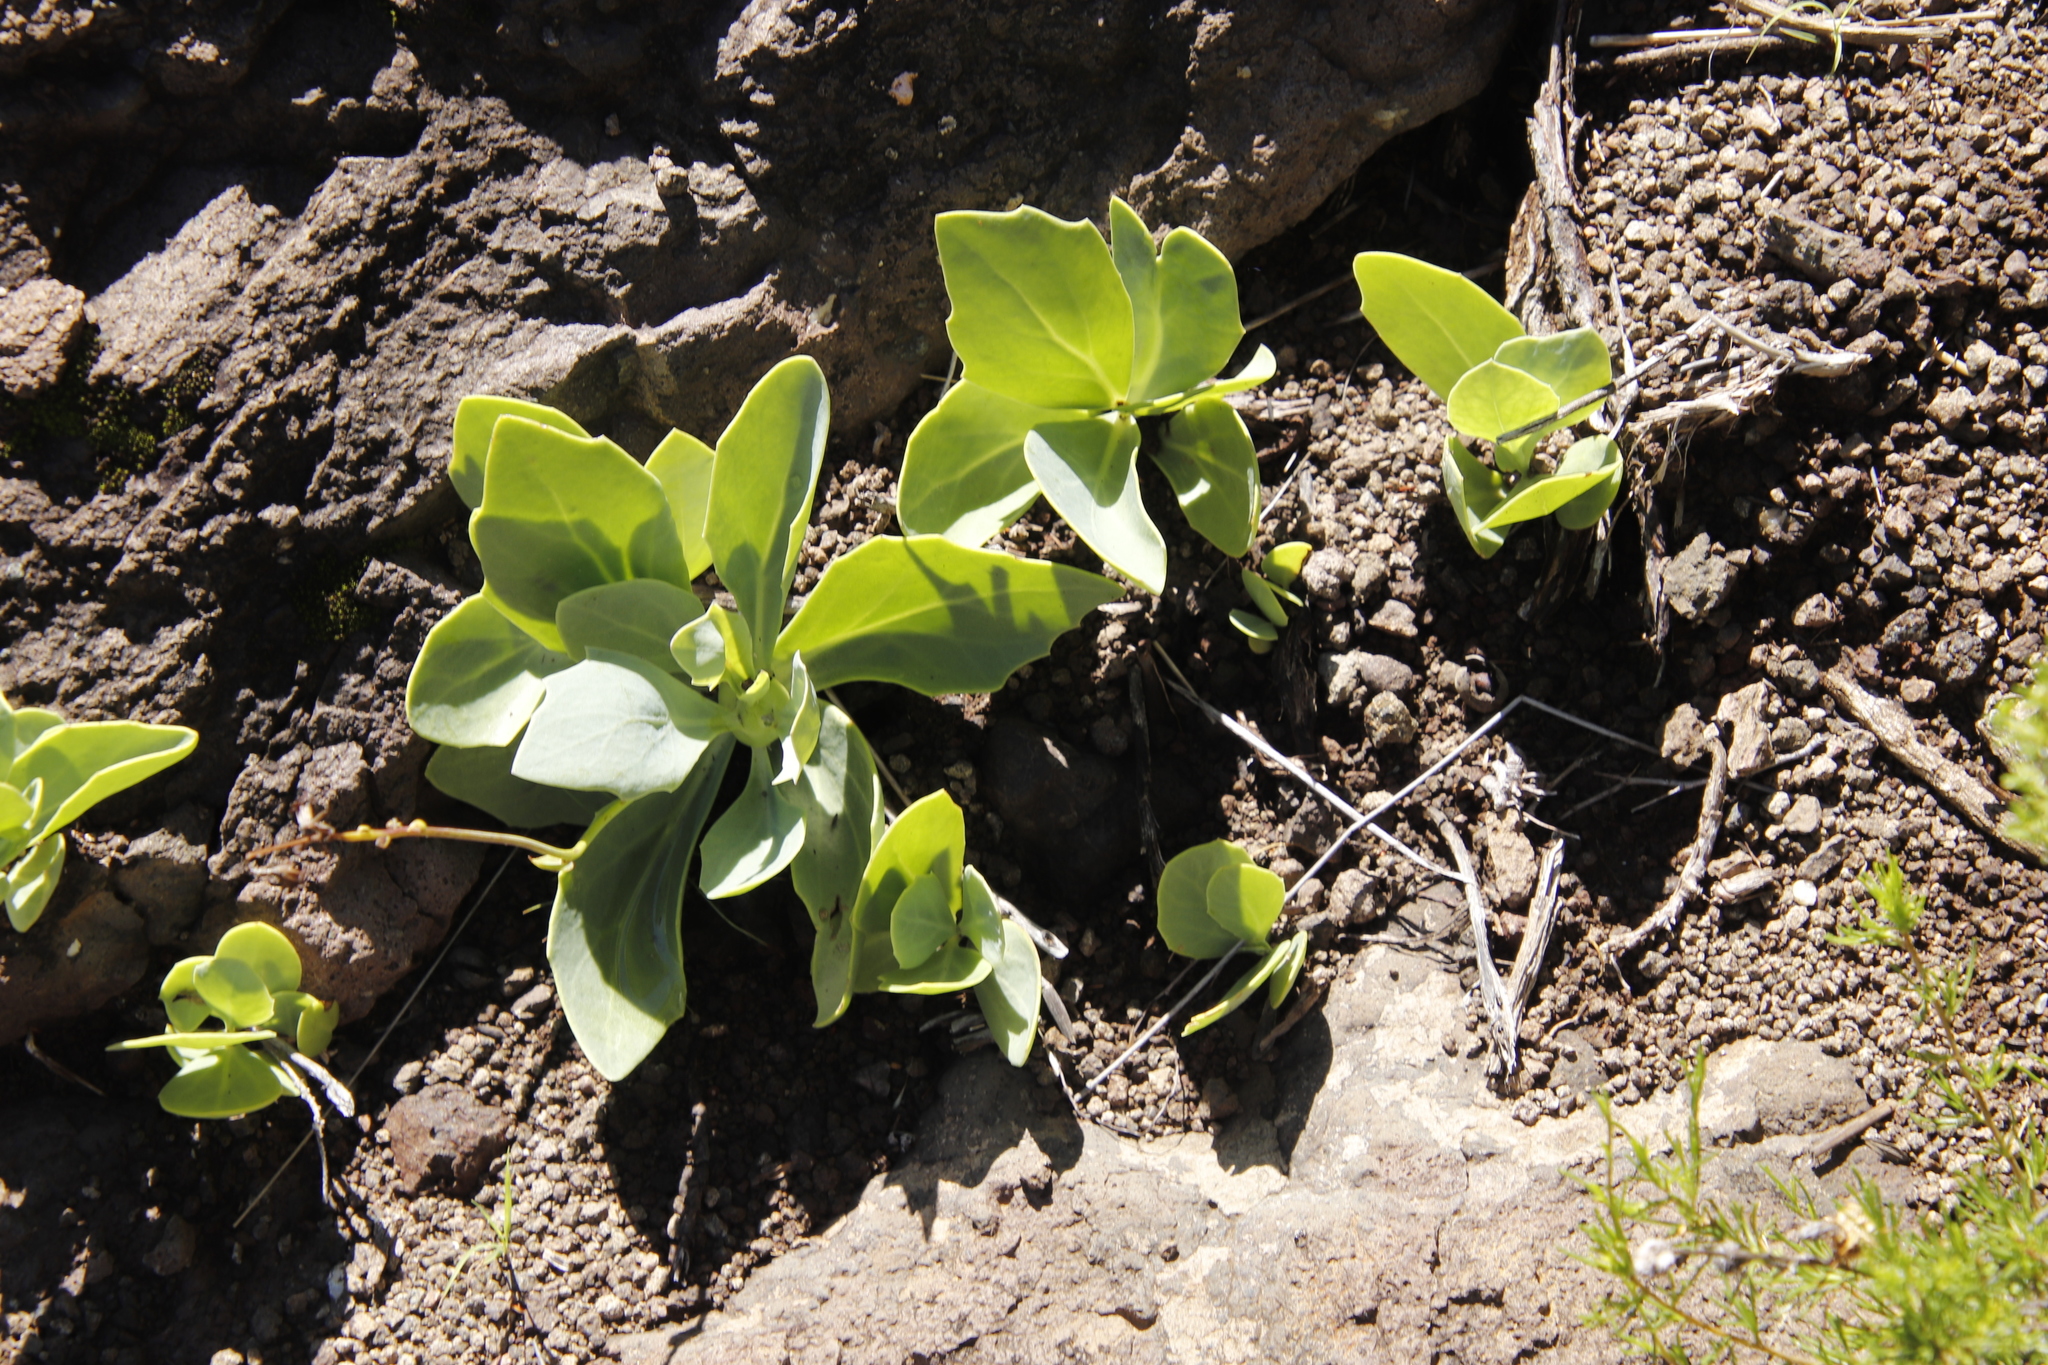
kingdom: Plantae
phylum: Tracheophyta
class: Magnoliopsida
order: Asterales
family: Asteraceae
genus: Senecio
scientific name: Senecio ruwenzoriensis
